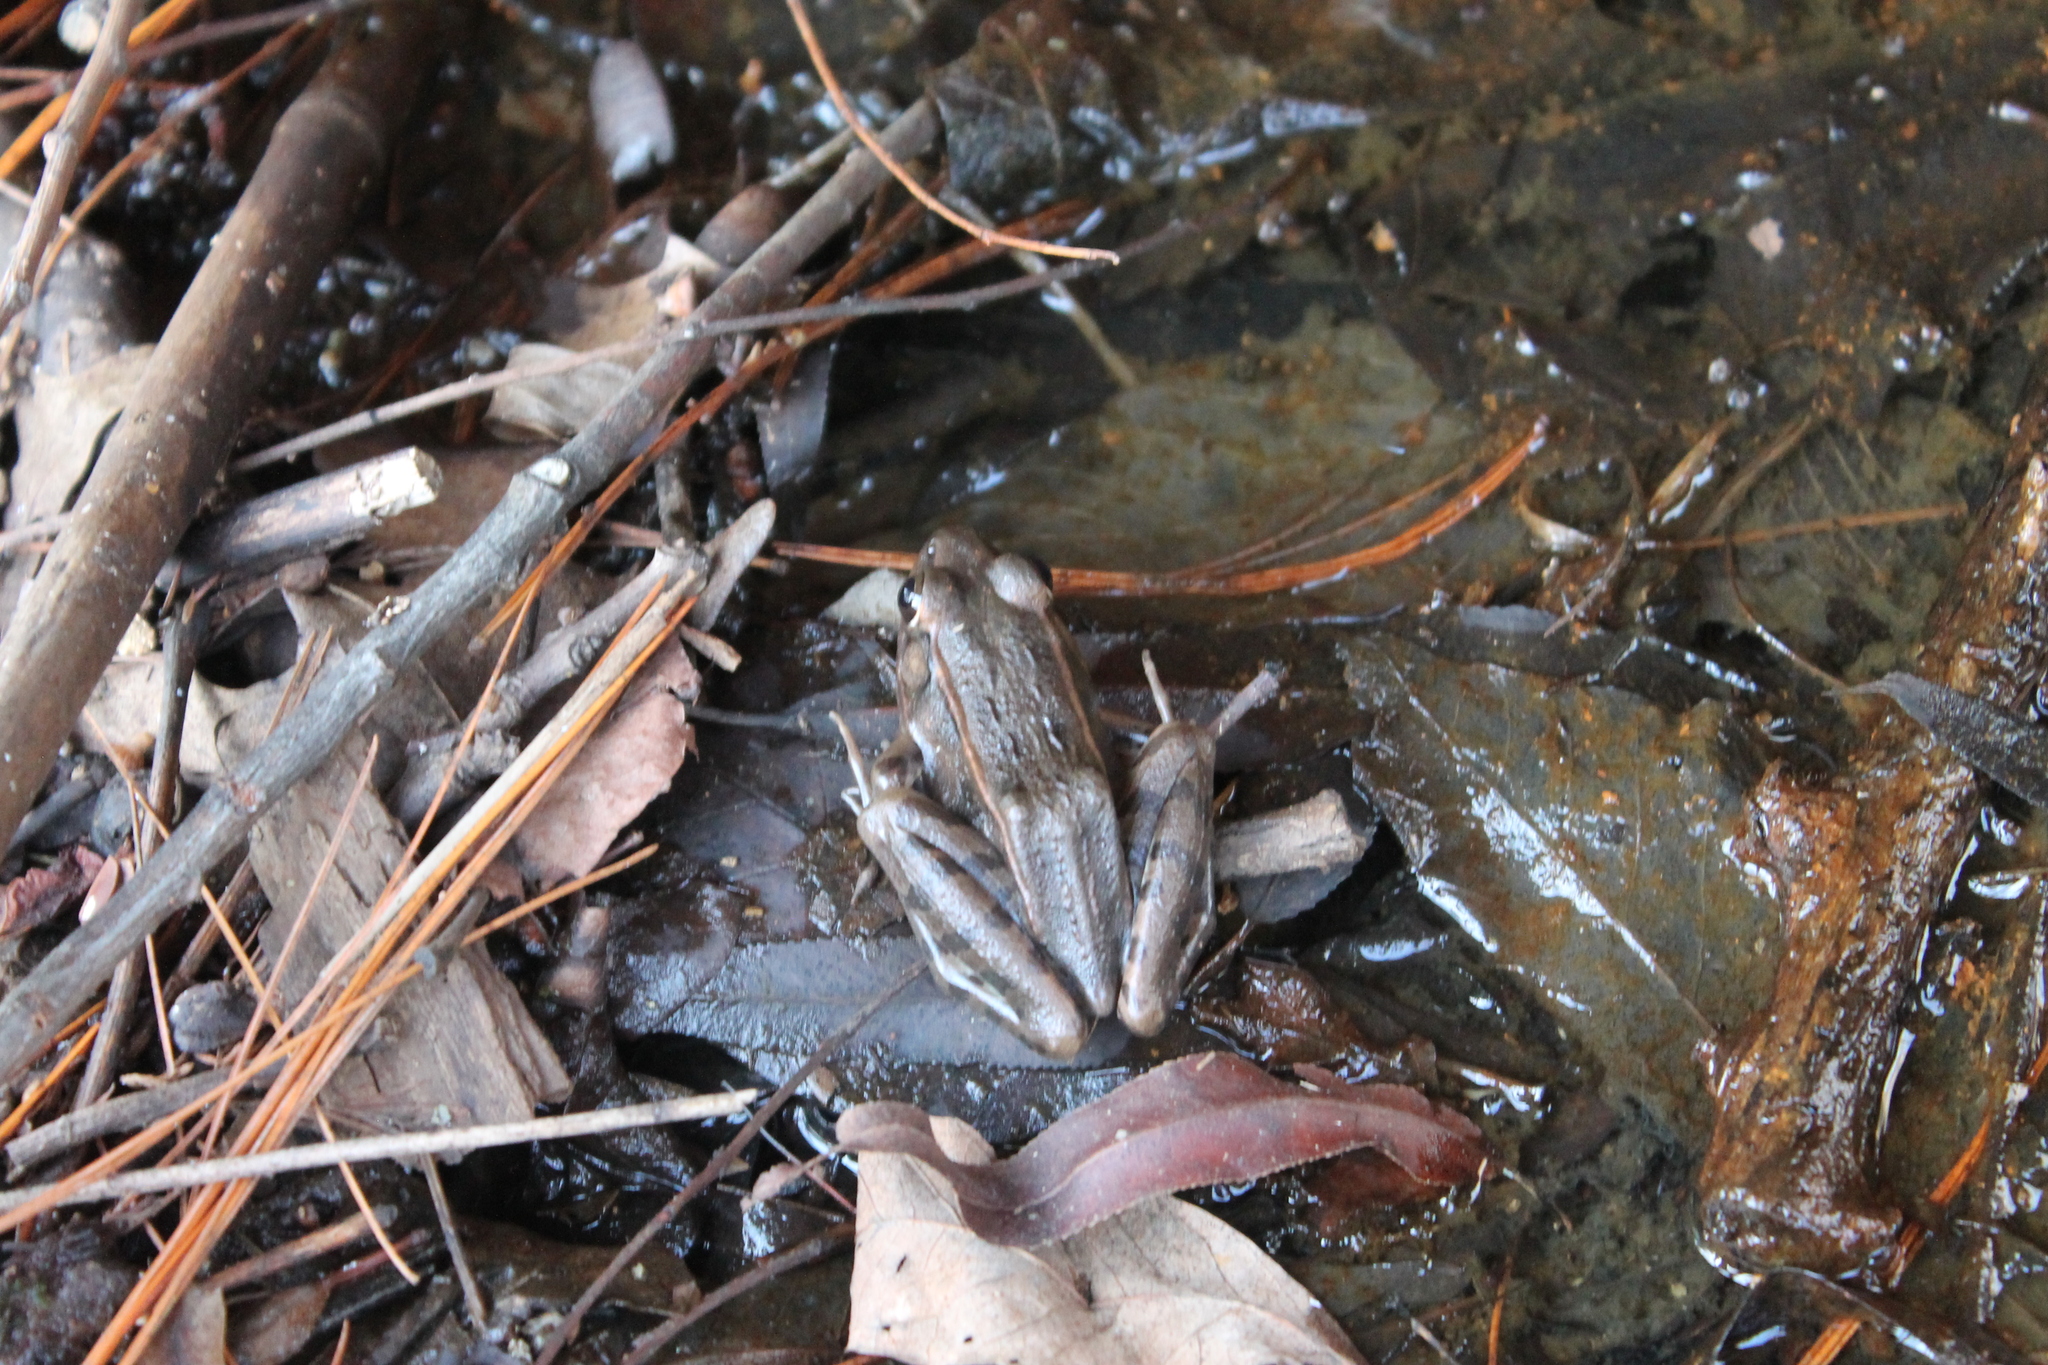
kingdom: Animalia
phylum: Chordata
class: Amphibia
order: Anura
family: Ranidae
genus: Lithobates
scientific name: Lithobates sphenocephalus
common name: Southern leopard frog
